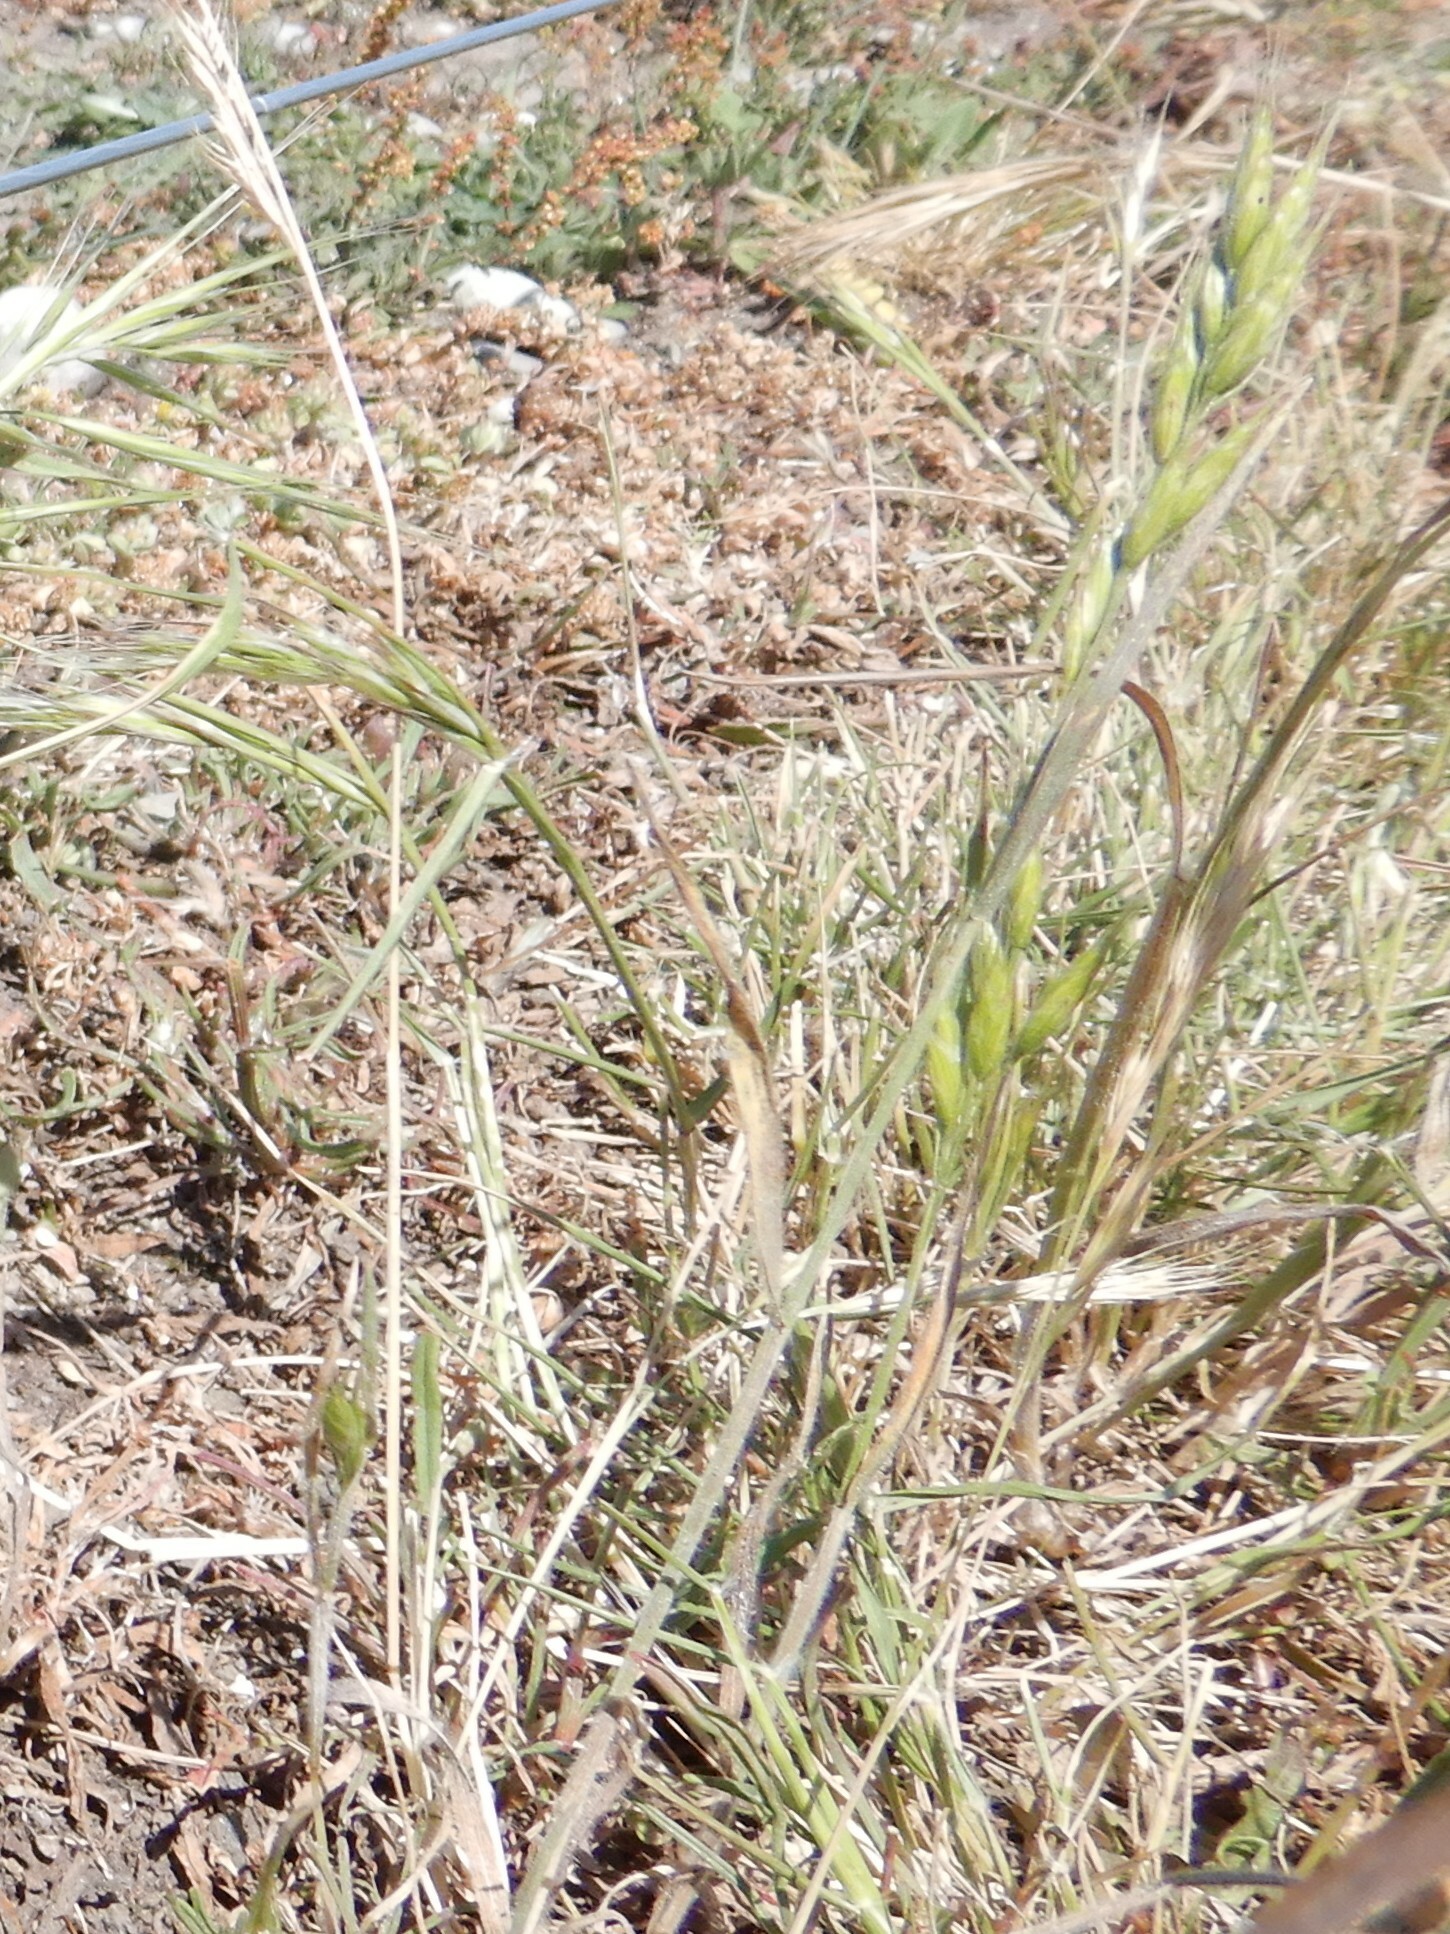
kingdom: Plantae
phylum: Tracheophyta
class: Liliopsida
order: Poales
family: Poaceae
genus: Bromus
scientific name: Bromus hordeaceus
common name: Soft brome
